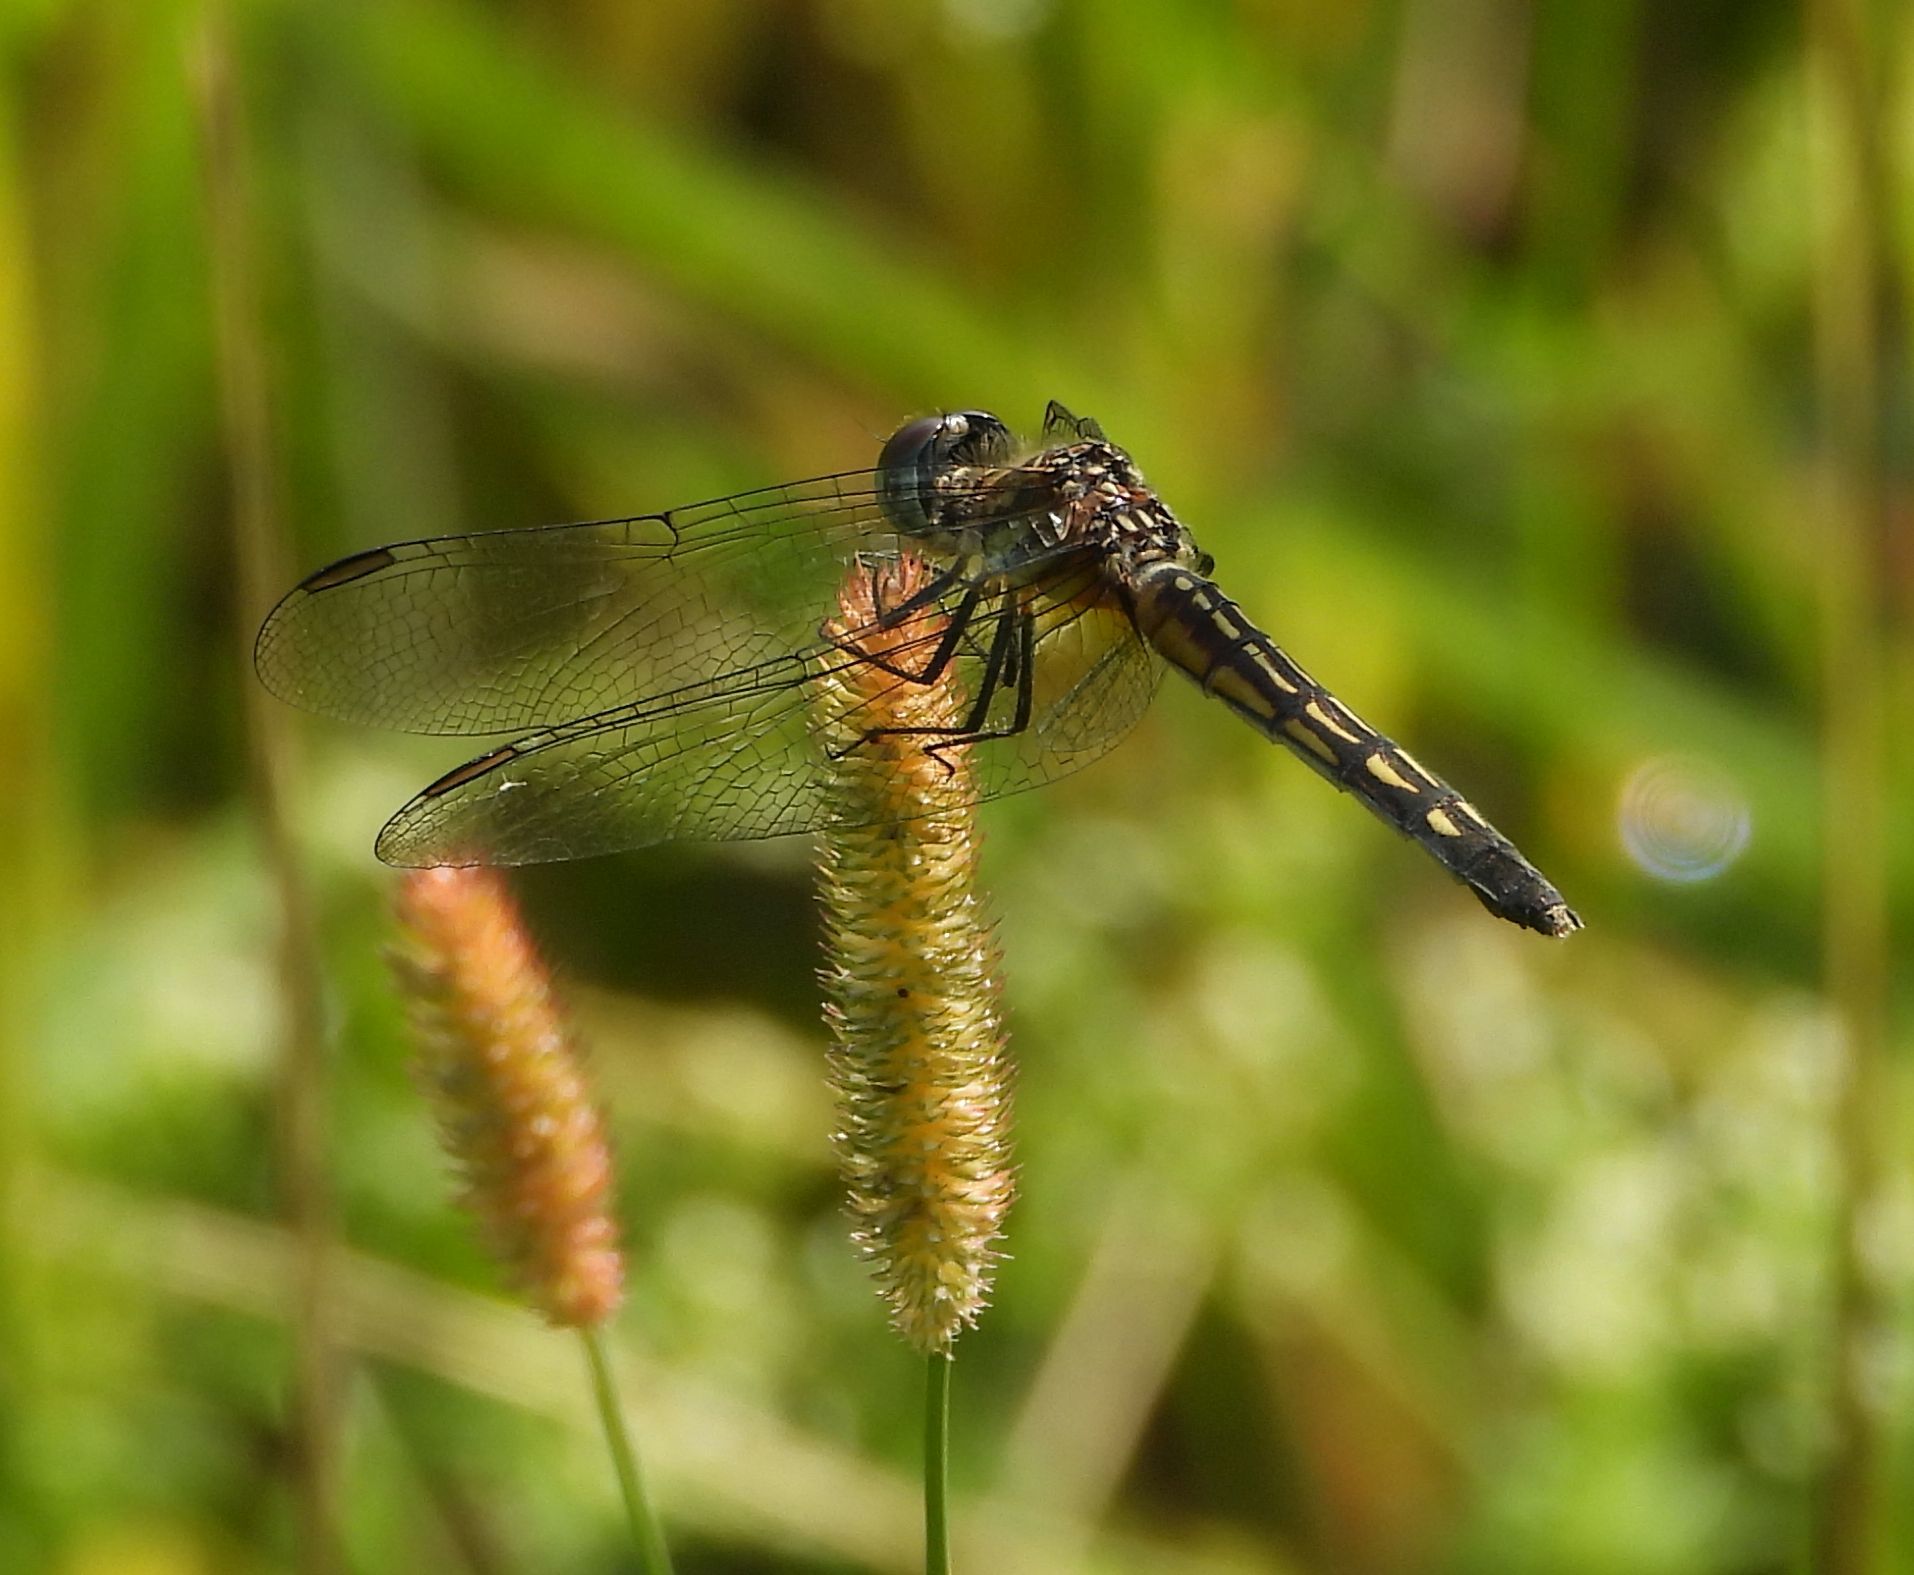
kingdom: Animalia
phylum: Arthropoda
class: Insecta
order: Odonata
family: Libellulidae
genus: Pachydiplax
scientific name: Pachydiplax longipennis
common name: Blue dasher
